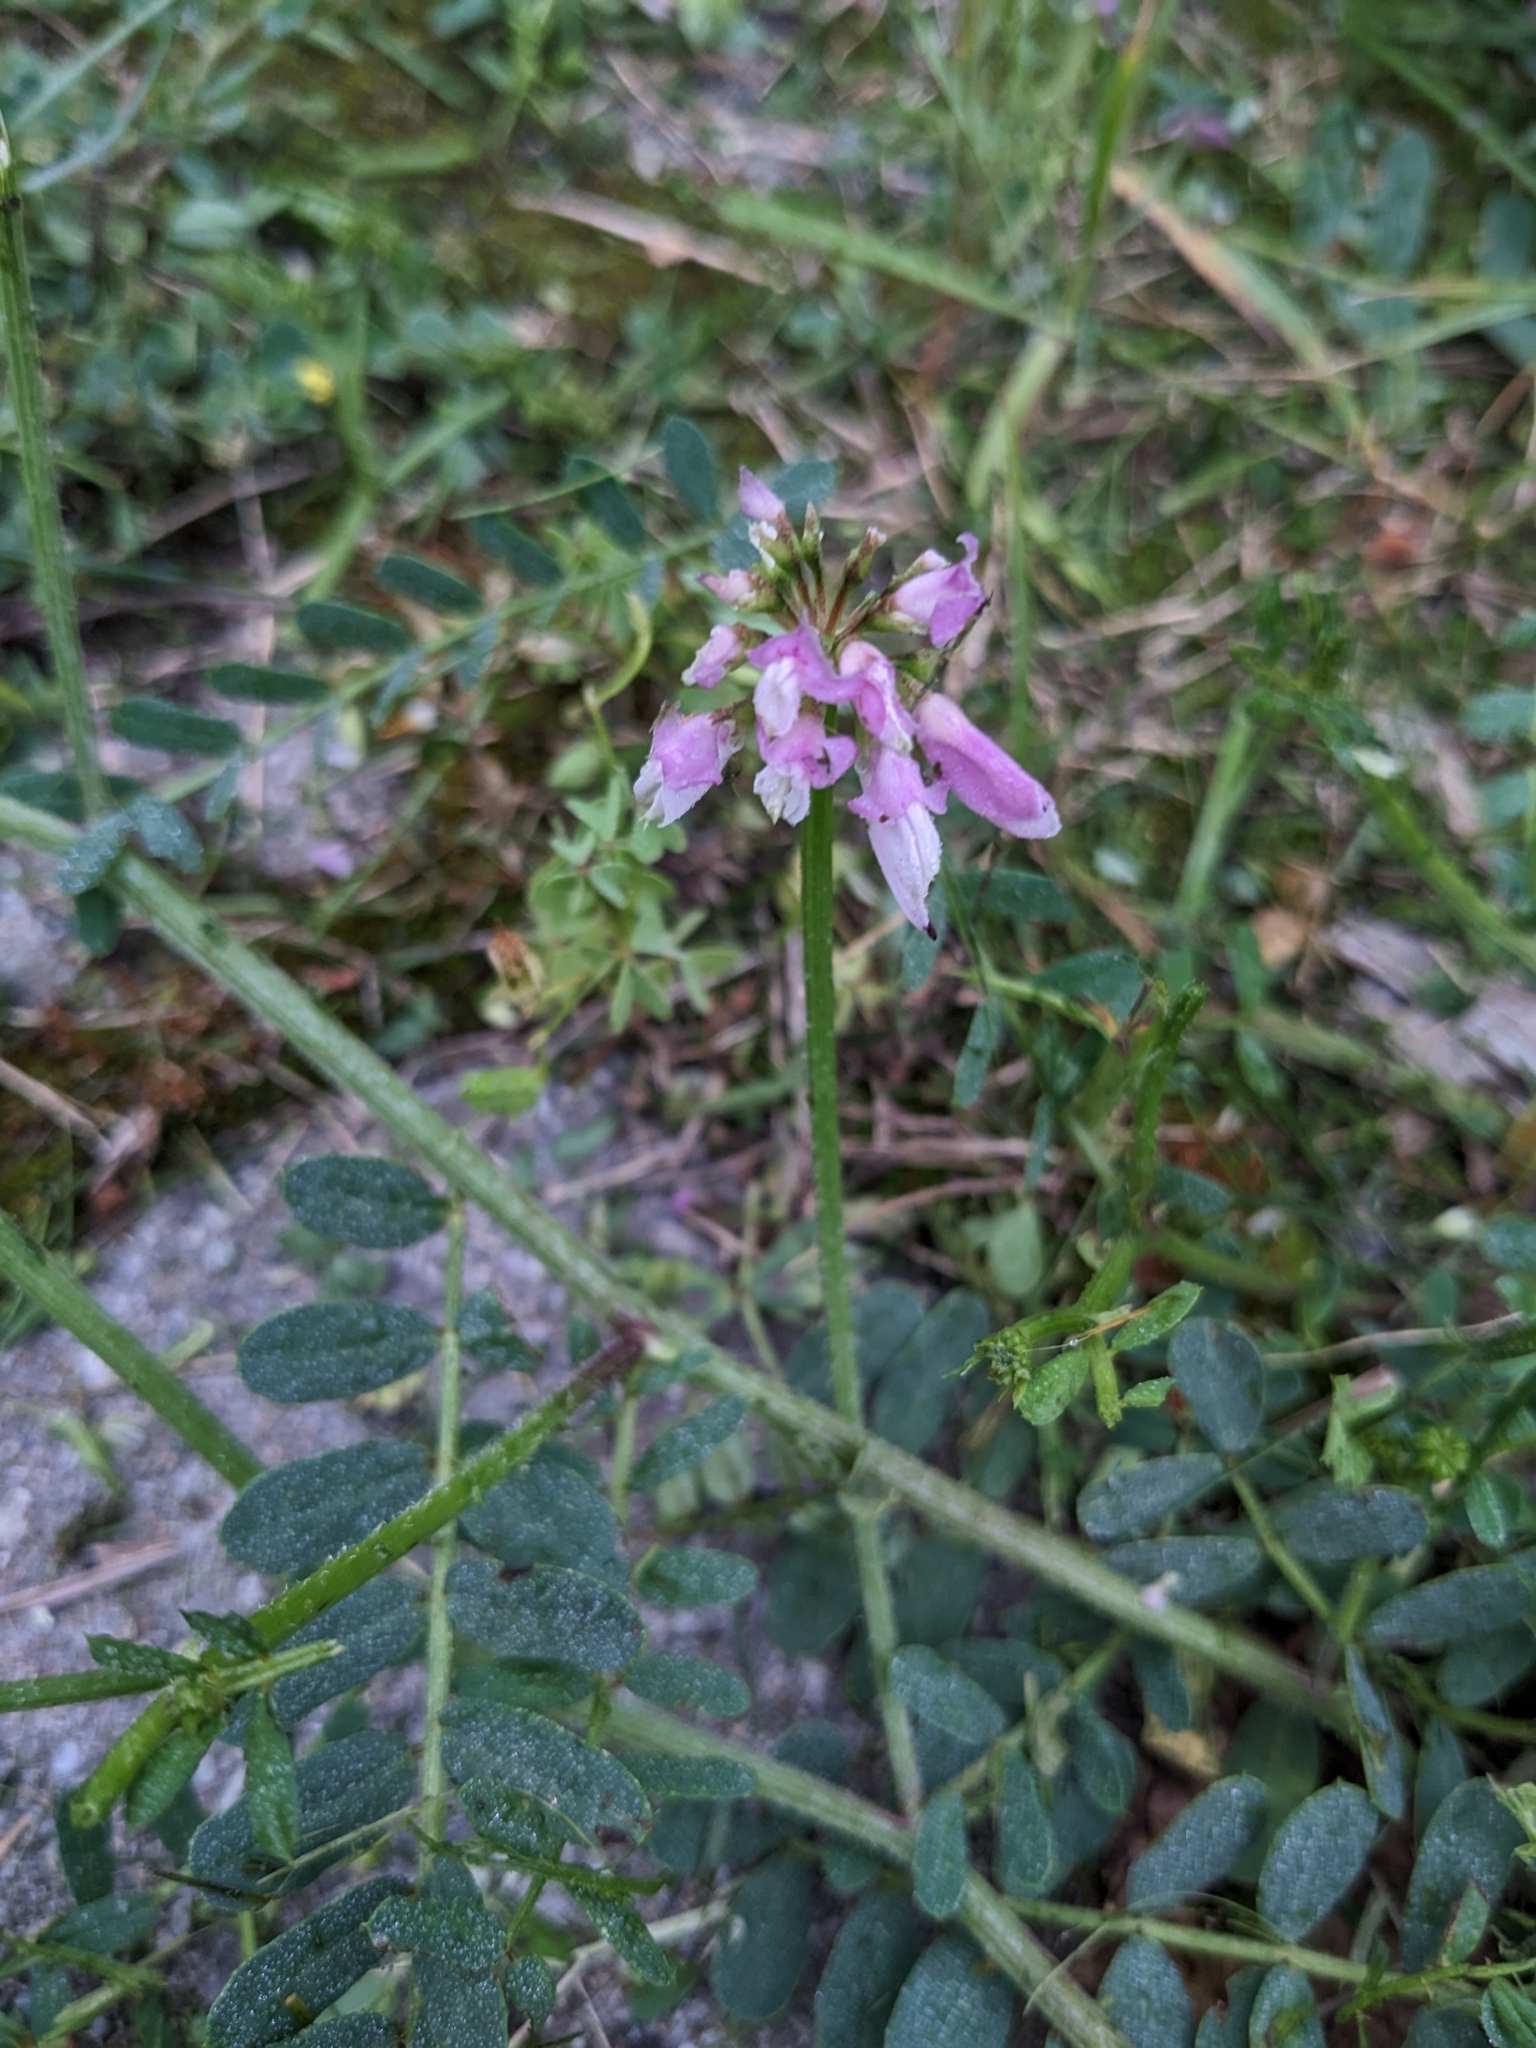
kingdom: Plantae
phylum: Tracheophyta
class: Magnoliopsida
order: Fabales
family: Fabaceae
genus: Coronilla
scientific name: Coronilla varia
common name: Crownvetch
